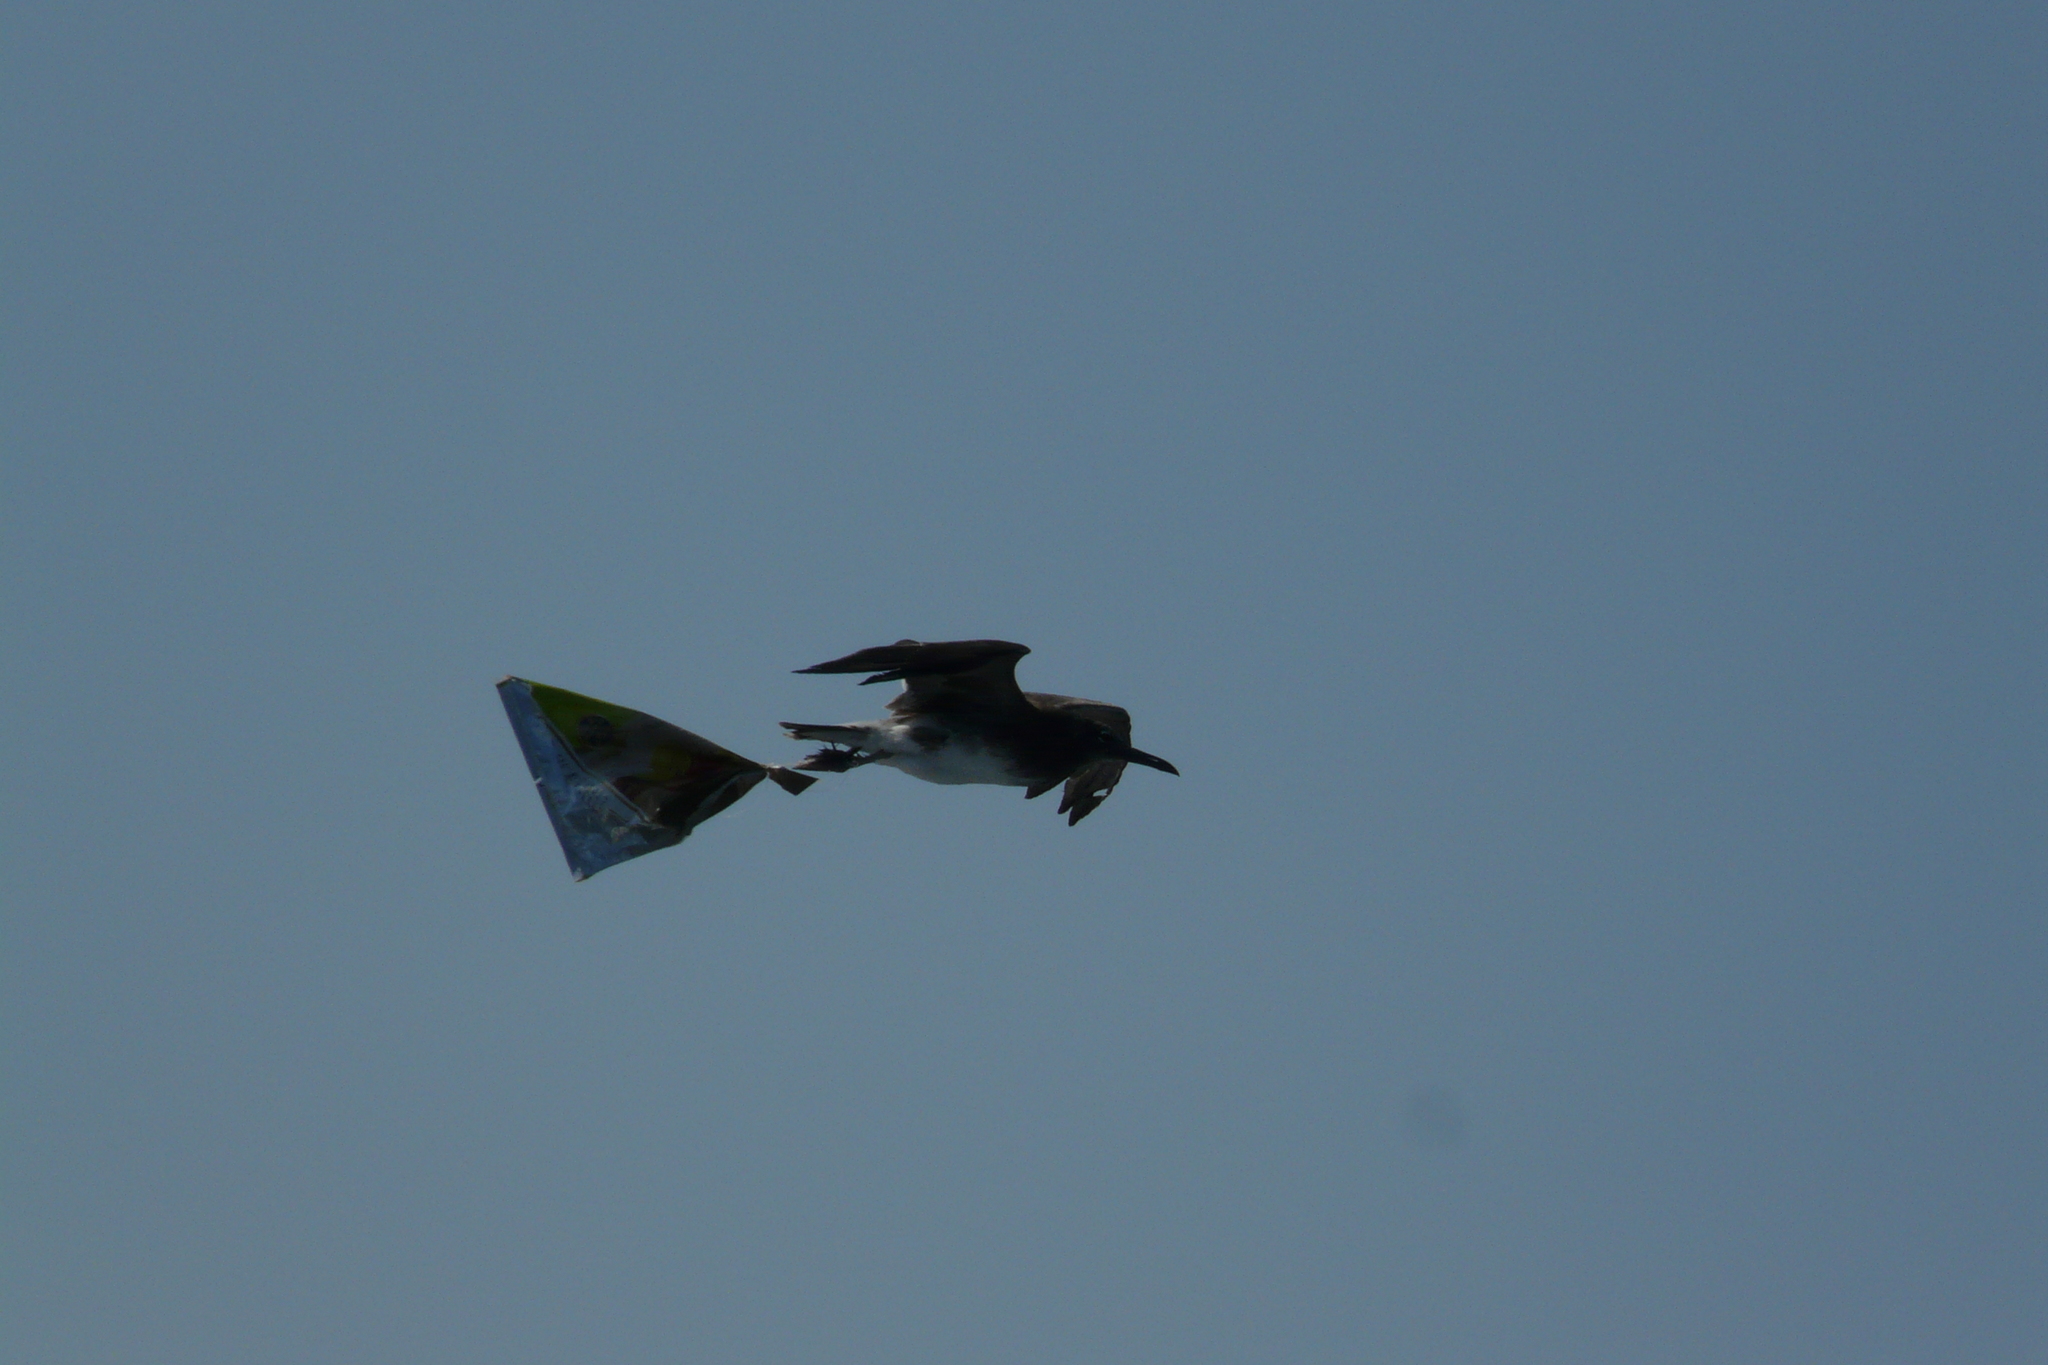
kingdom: Animalia
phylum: Chordata
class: Aves
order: Charadriiformes
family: Laridae
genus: Ichthyaetus
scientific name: Ichthyaetus leucophthalmus
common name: White-eyed gull
